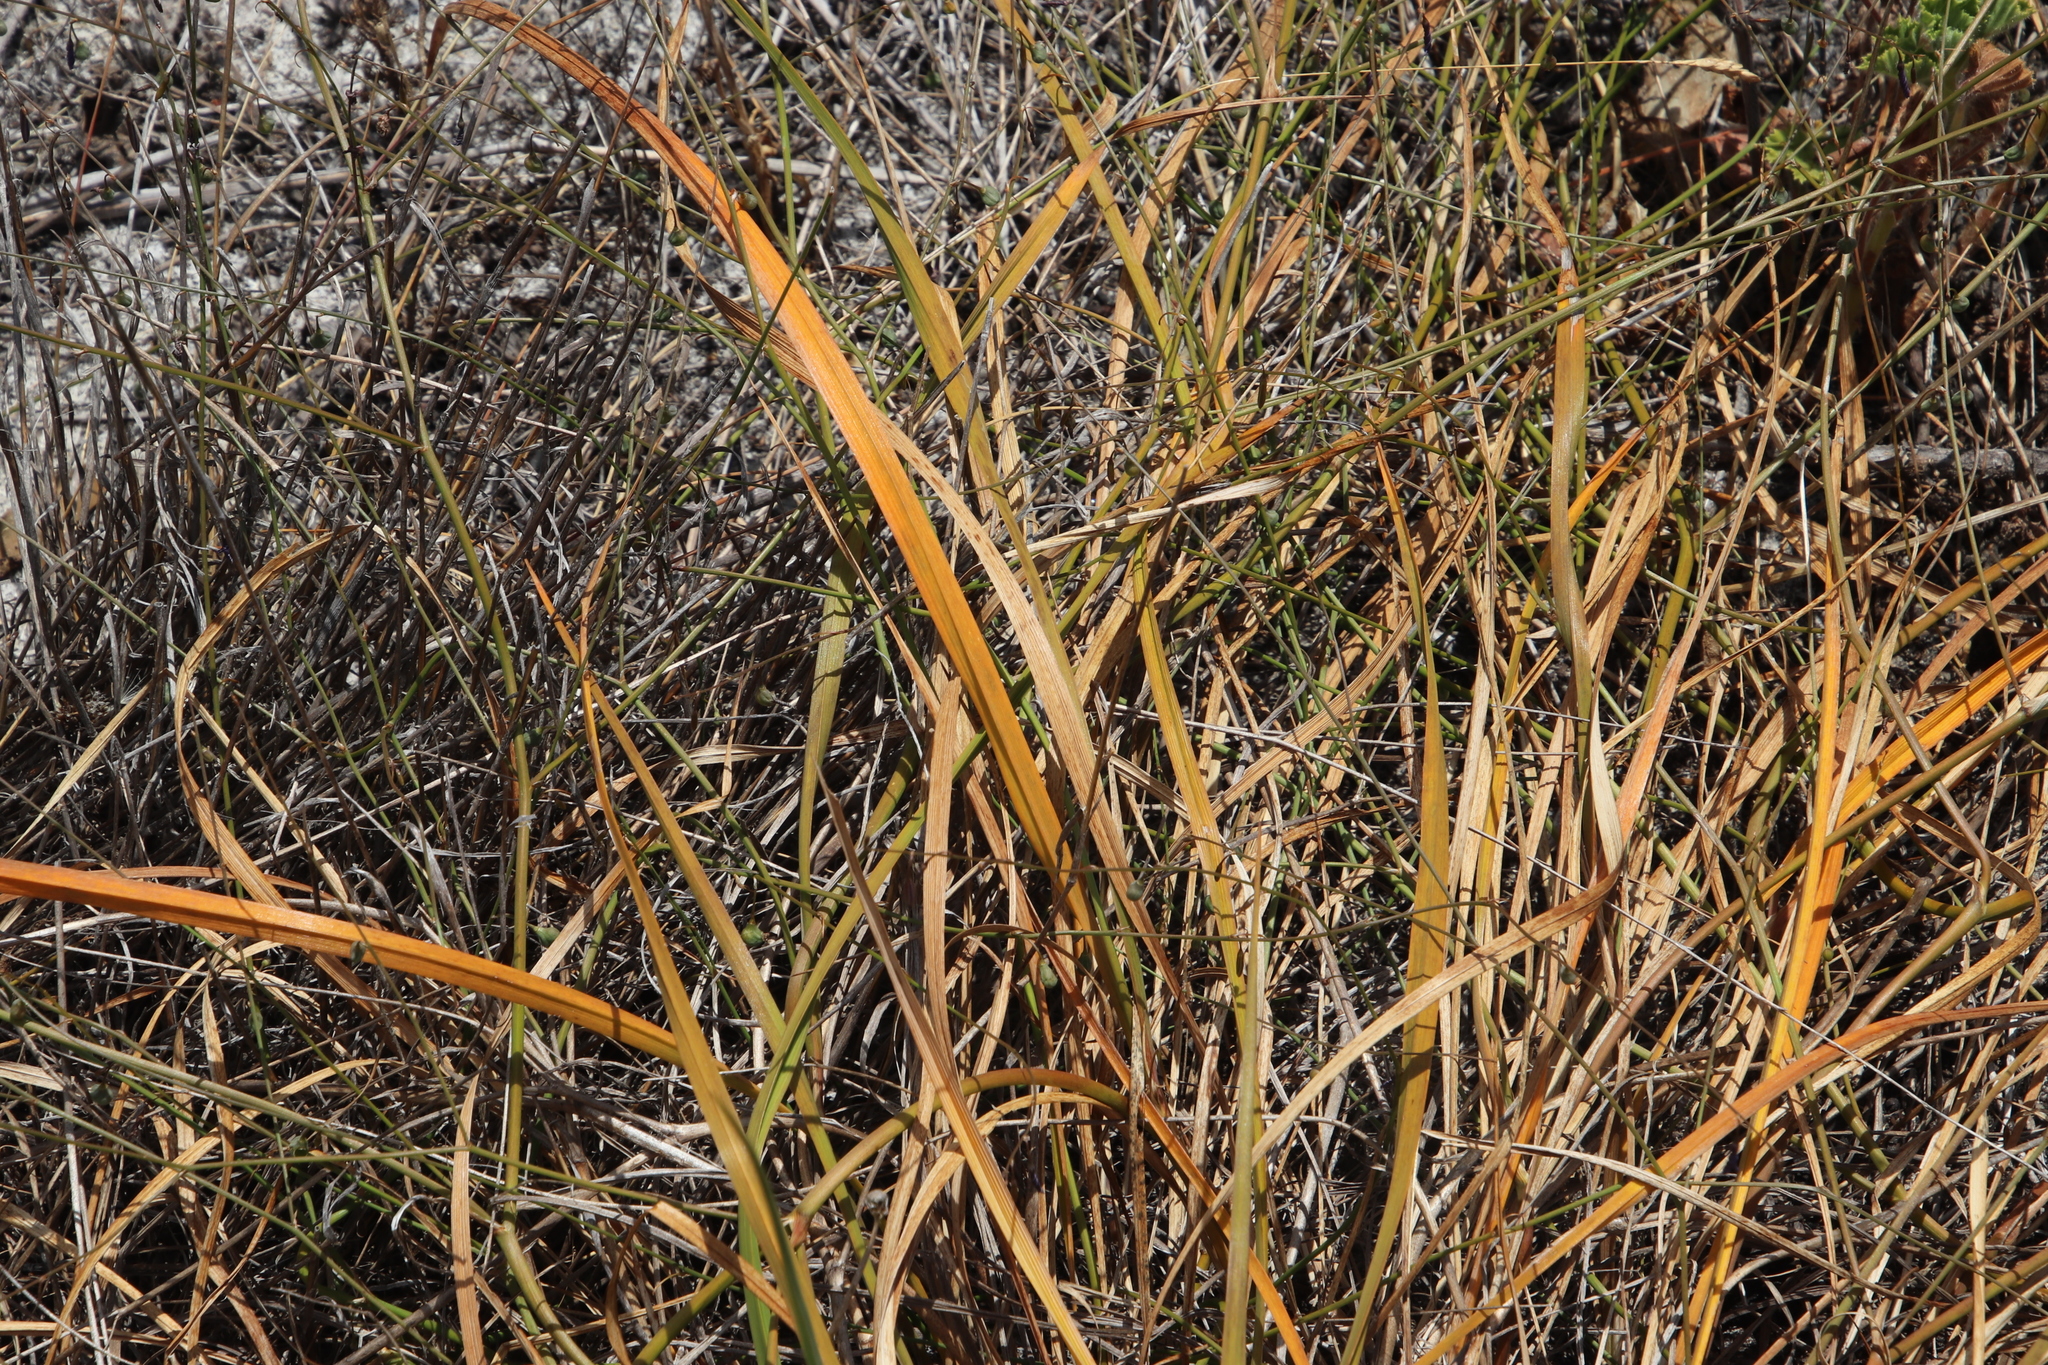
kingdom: Plantae
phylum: Tracheophyta
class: Liliopsida
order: Asparagales
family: Asphodelaceae
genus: Caesia
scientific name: Caesia contorta
